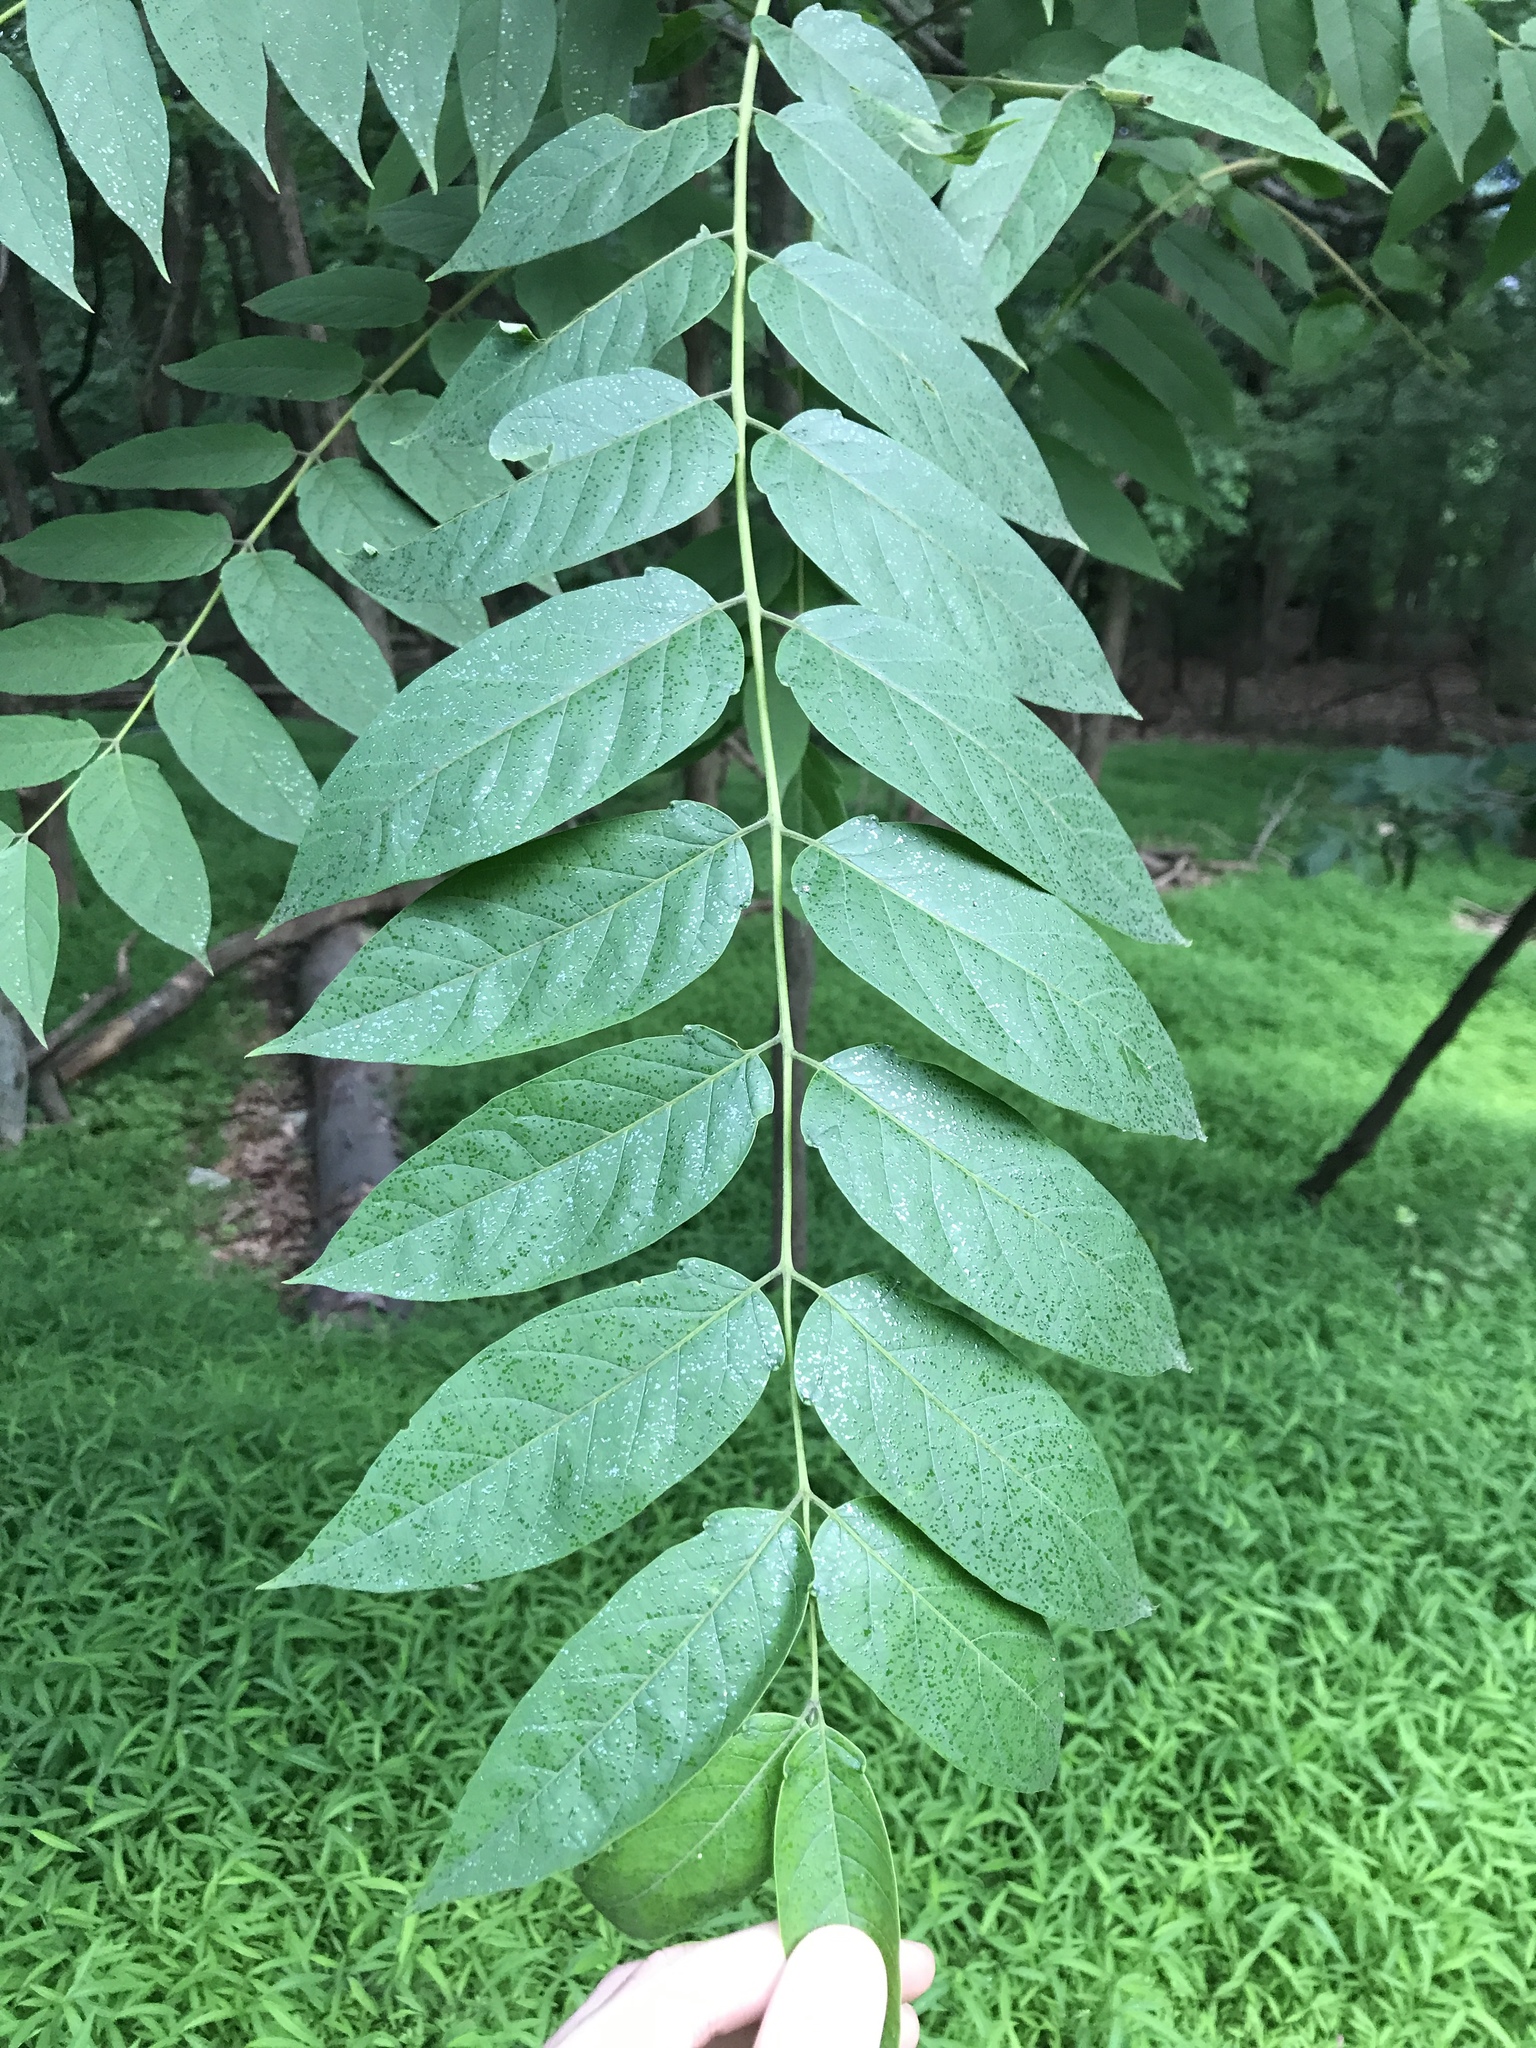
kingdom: Plantae
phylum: Tracheophyta
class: Magnoliopsida
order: Sapindales
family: Simaroubaceae
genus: Ailanthus
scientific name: Ailanthus altissima
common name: Tree-of-heaven
